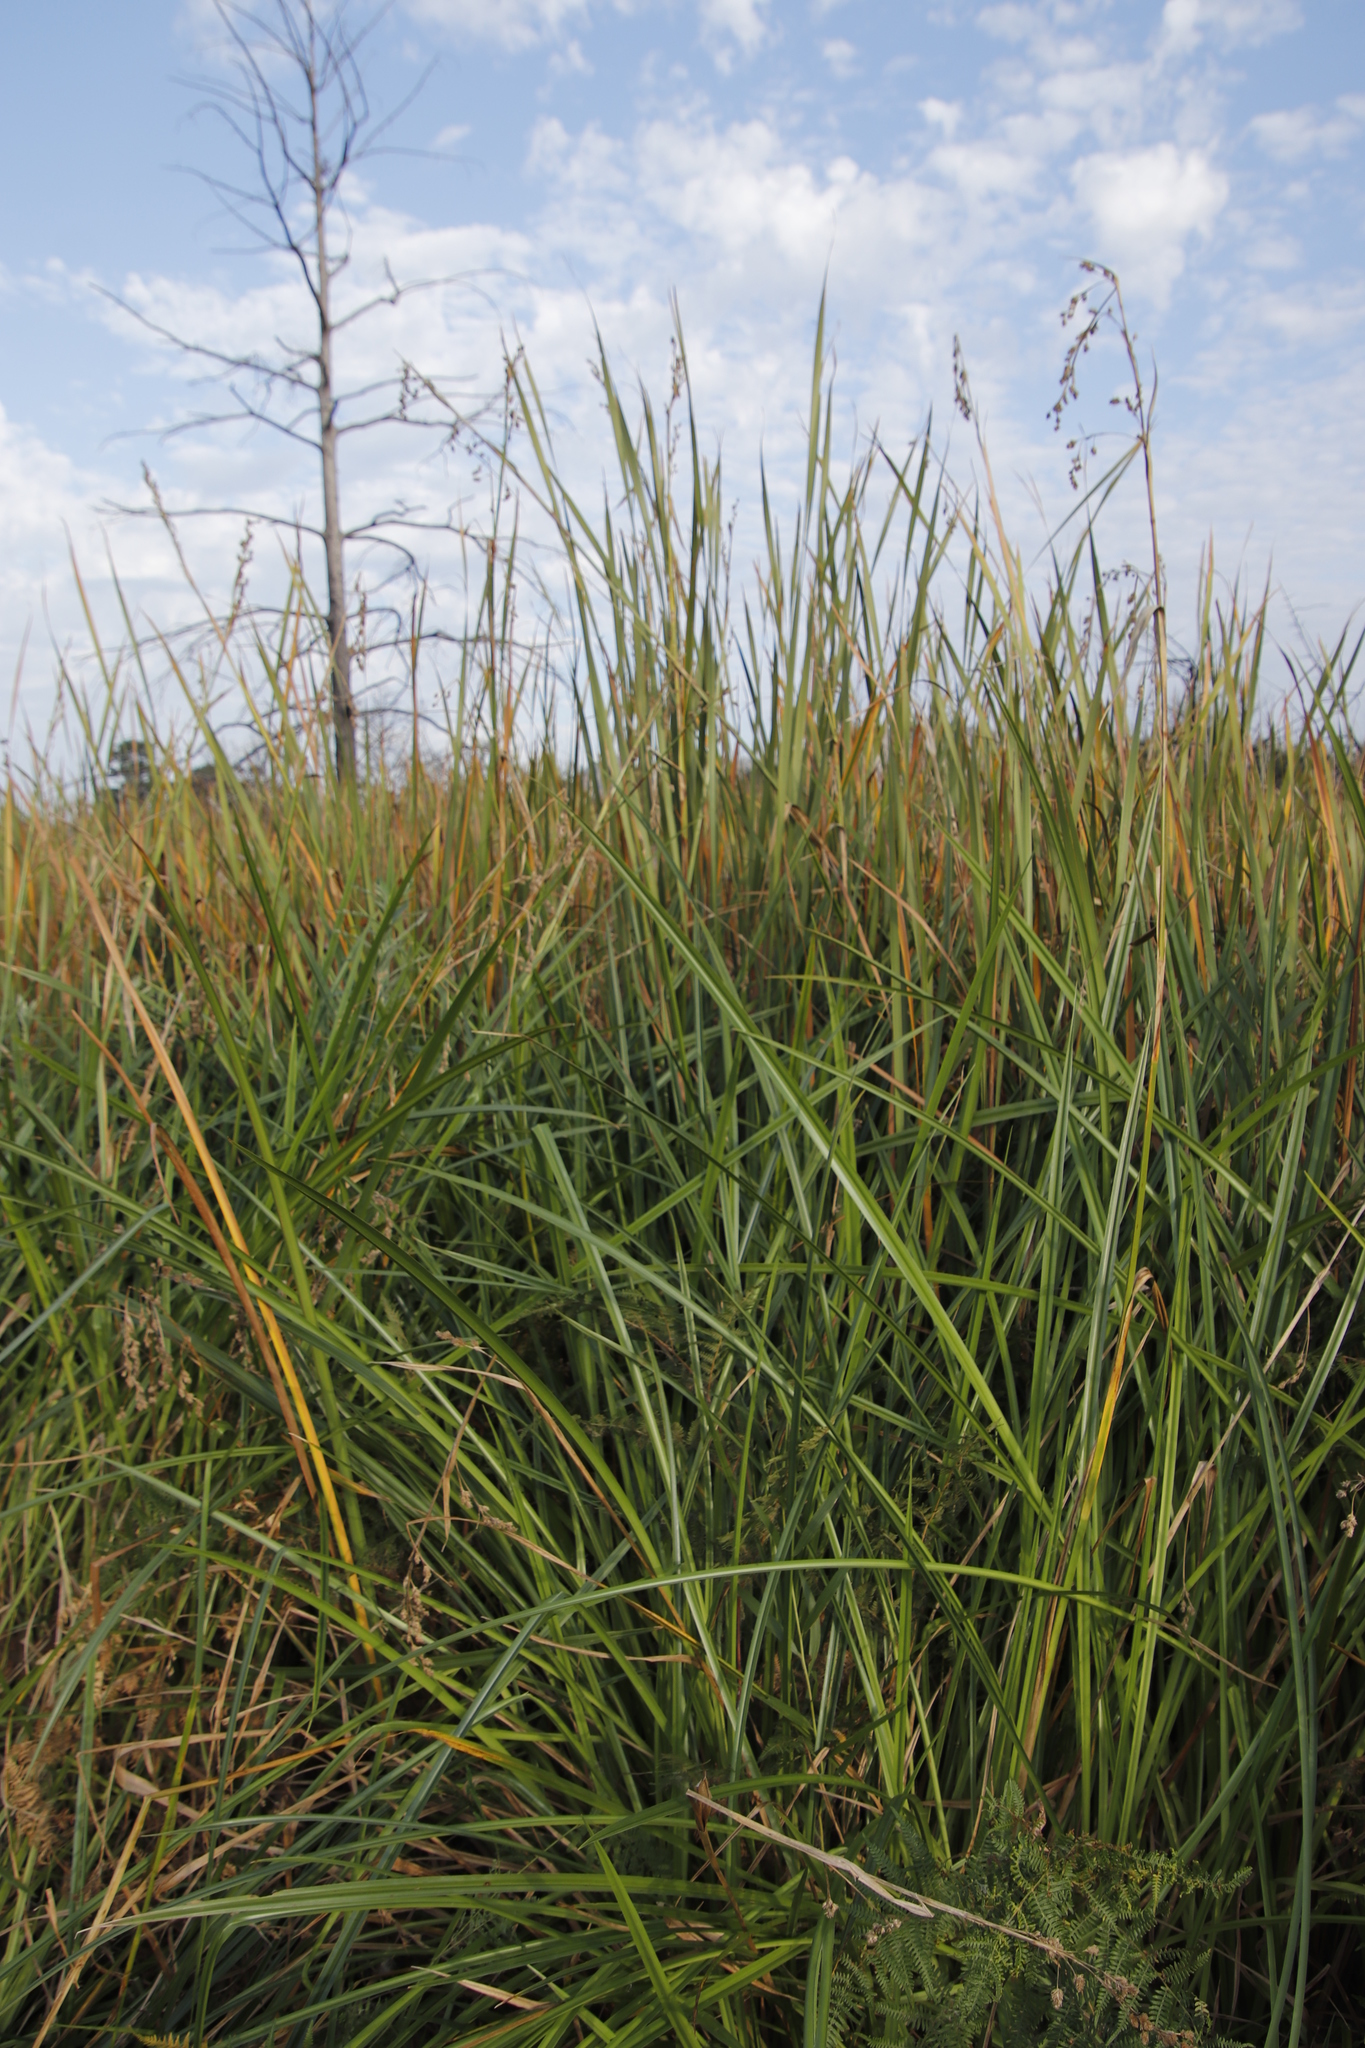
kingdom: Plantae
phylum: Tracheophyta
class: Liliopsida
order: Poales
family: Cyperaceae
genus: Carpha
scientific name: Carpha glomerata
